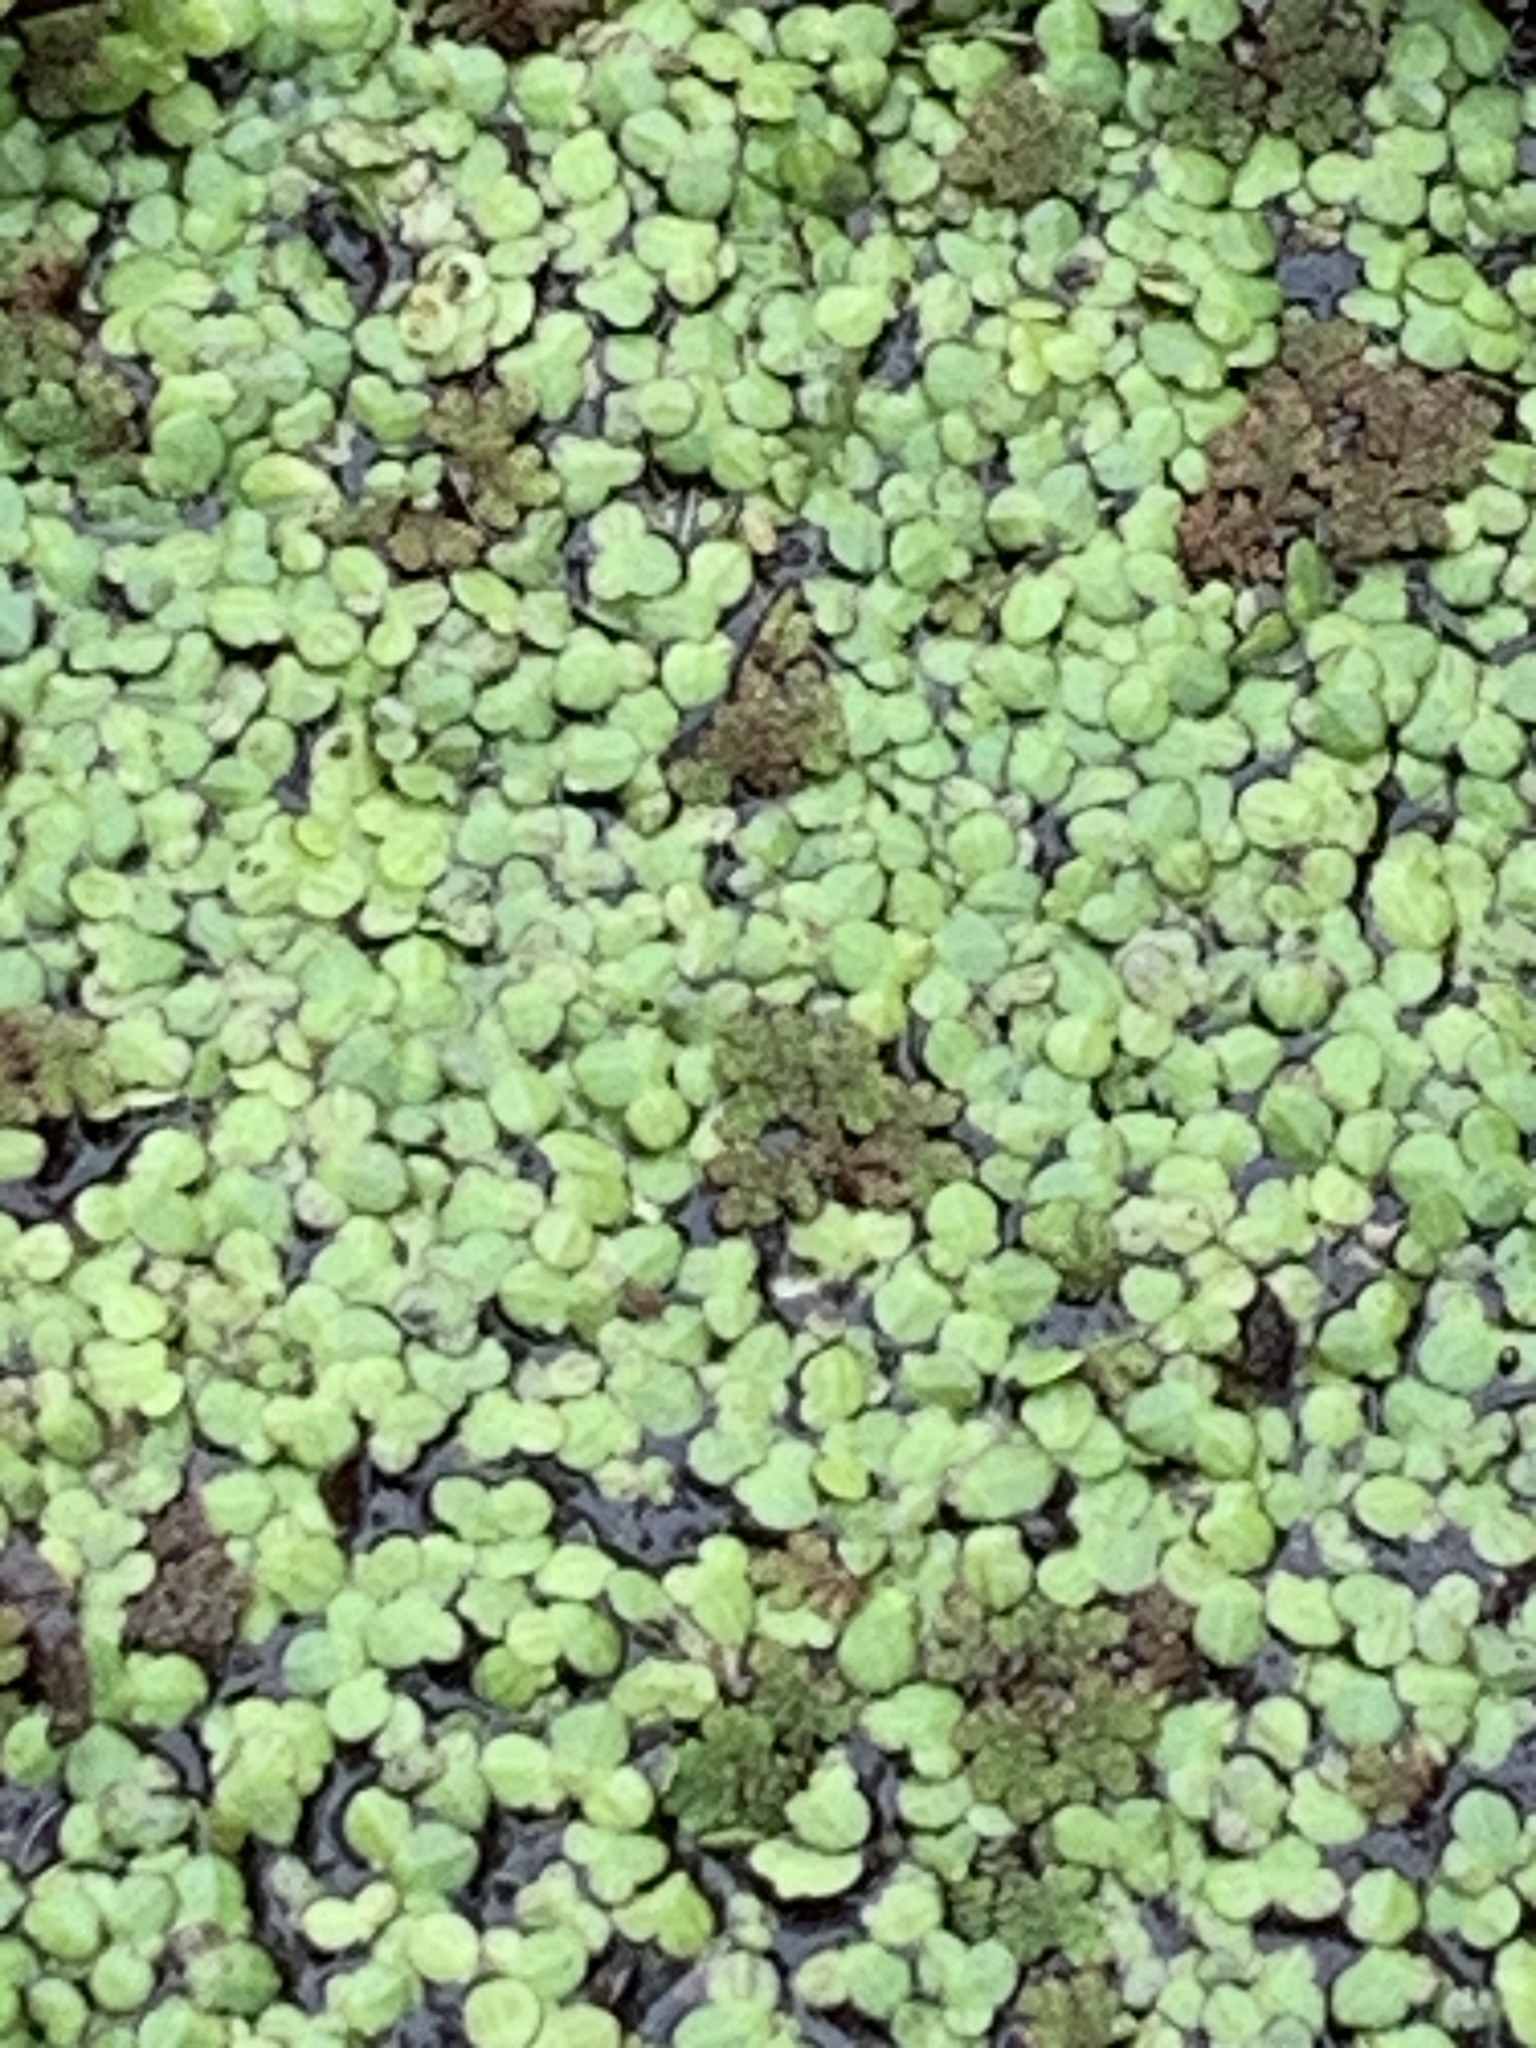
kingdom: Plantae
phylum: Tracheophyta
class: Polypodiopsida
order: Salviniales
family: Salviniaceae
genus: Azolla
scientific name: Azolla caroliniana
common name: Carolina mosquitofern
